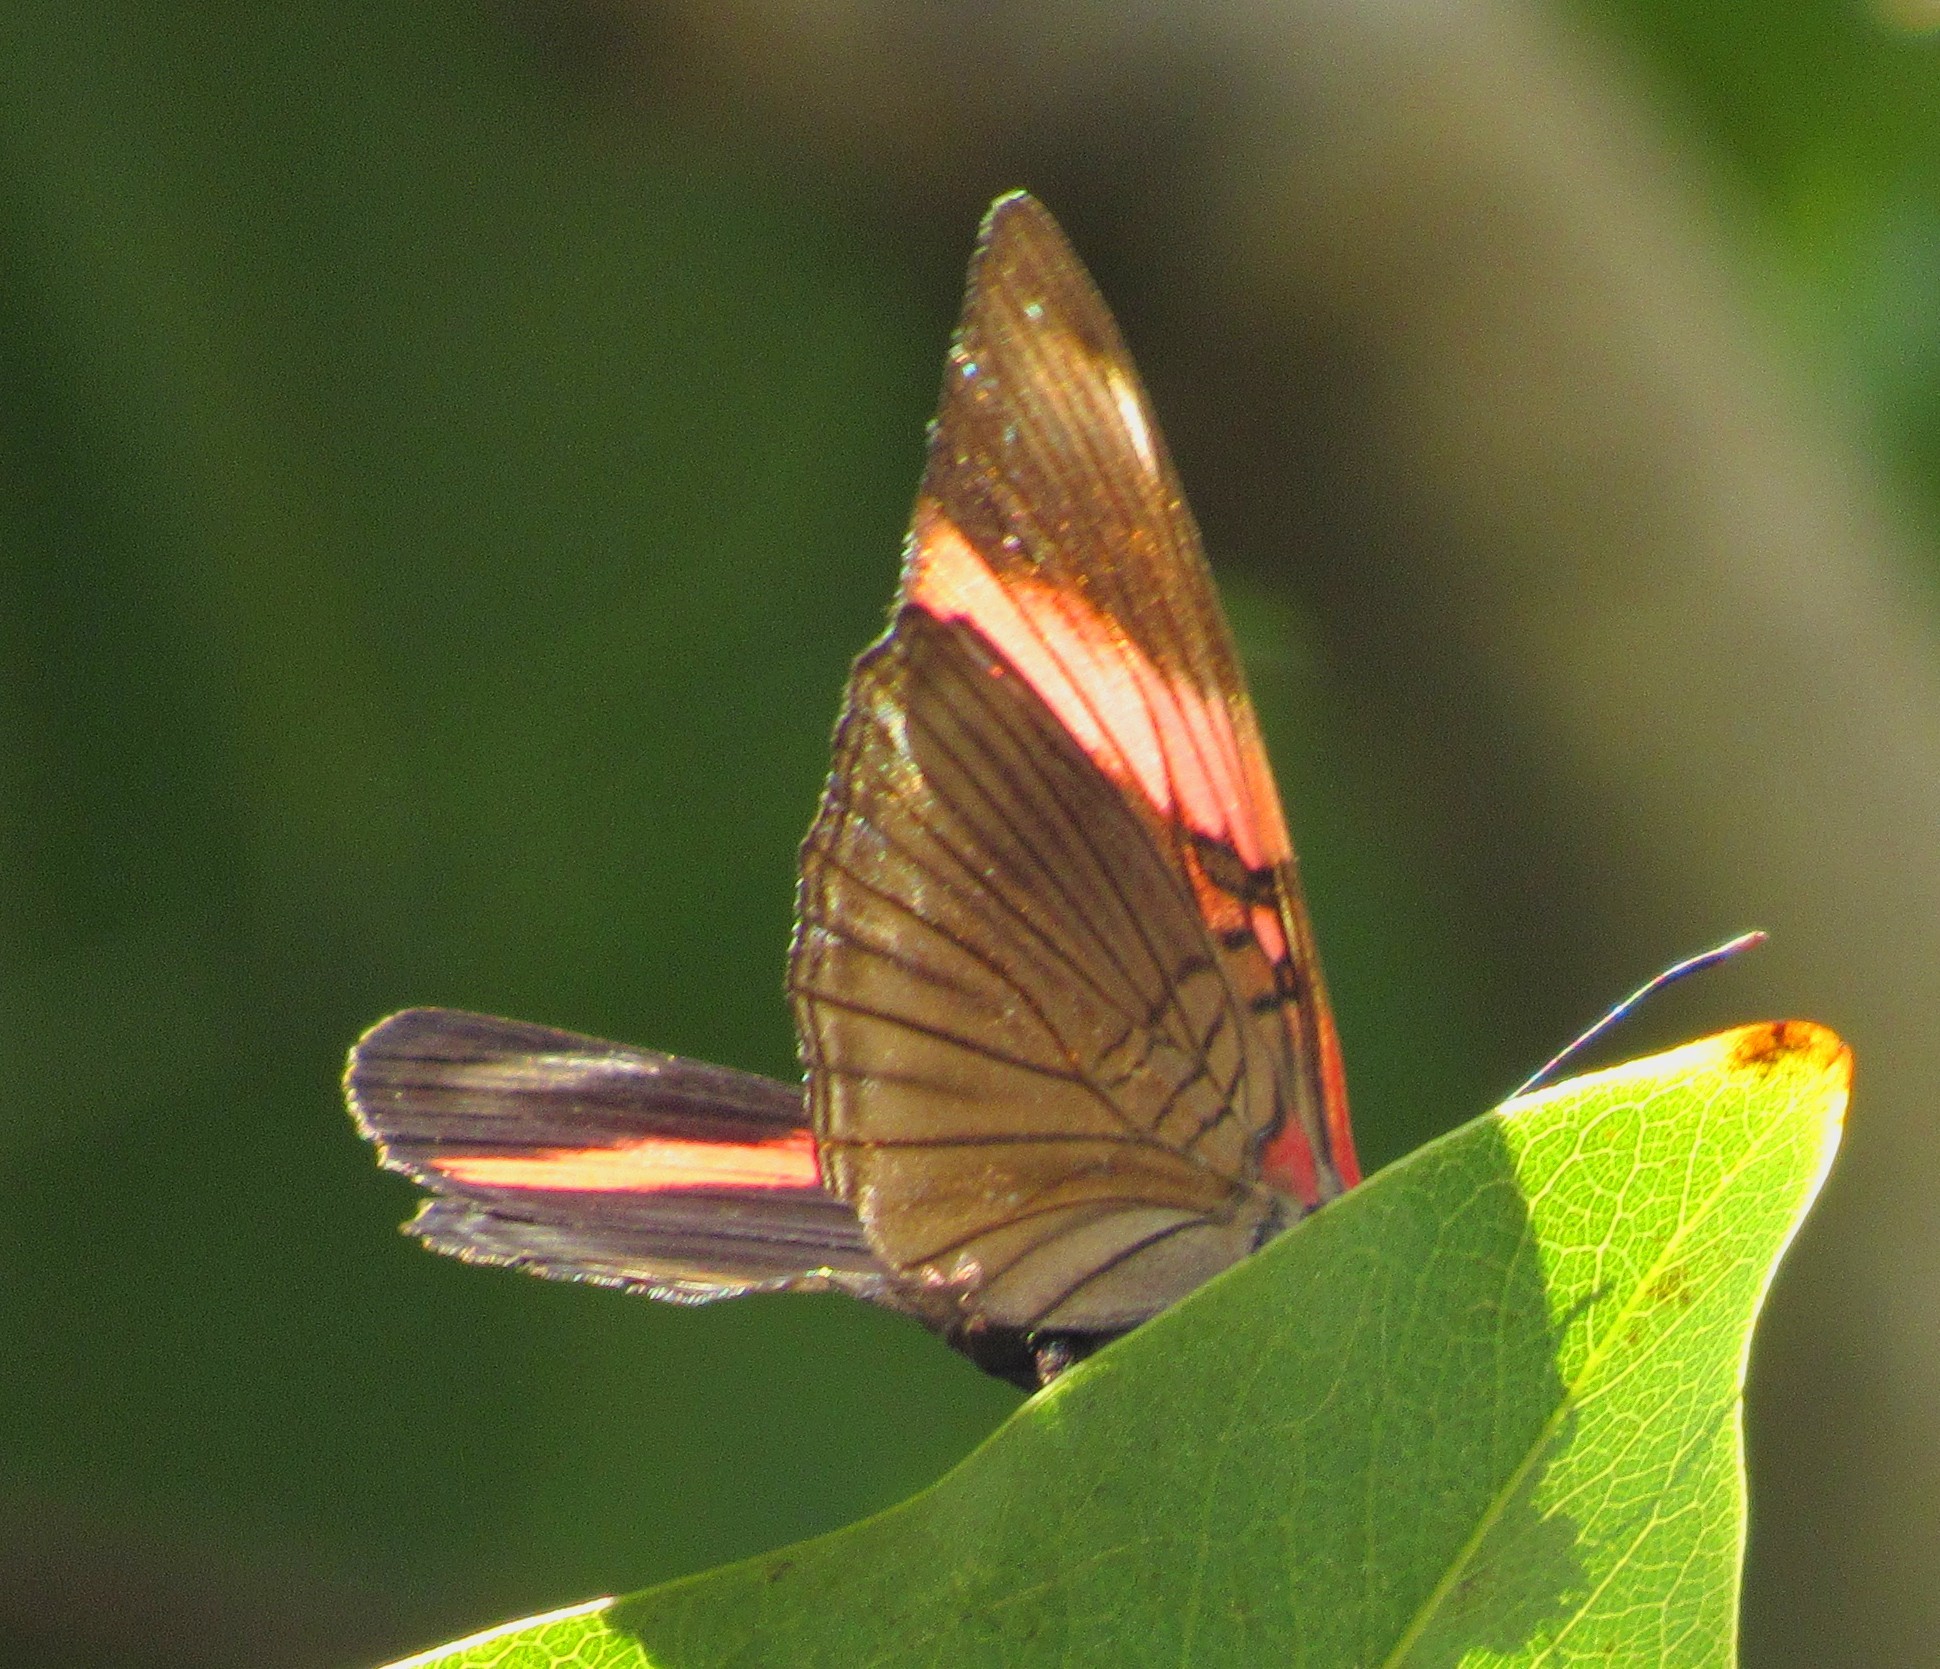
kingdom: Animalia
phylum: Arthropoda
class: Insecta
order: Lepidoptera
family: Nymphalidae
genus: Limenitis
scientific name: Limenitis isis
